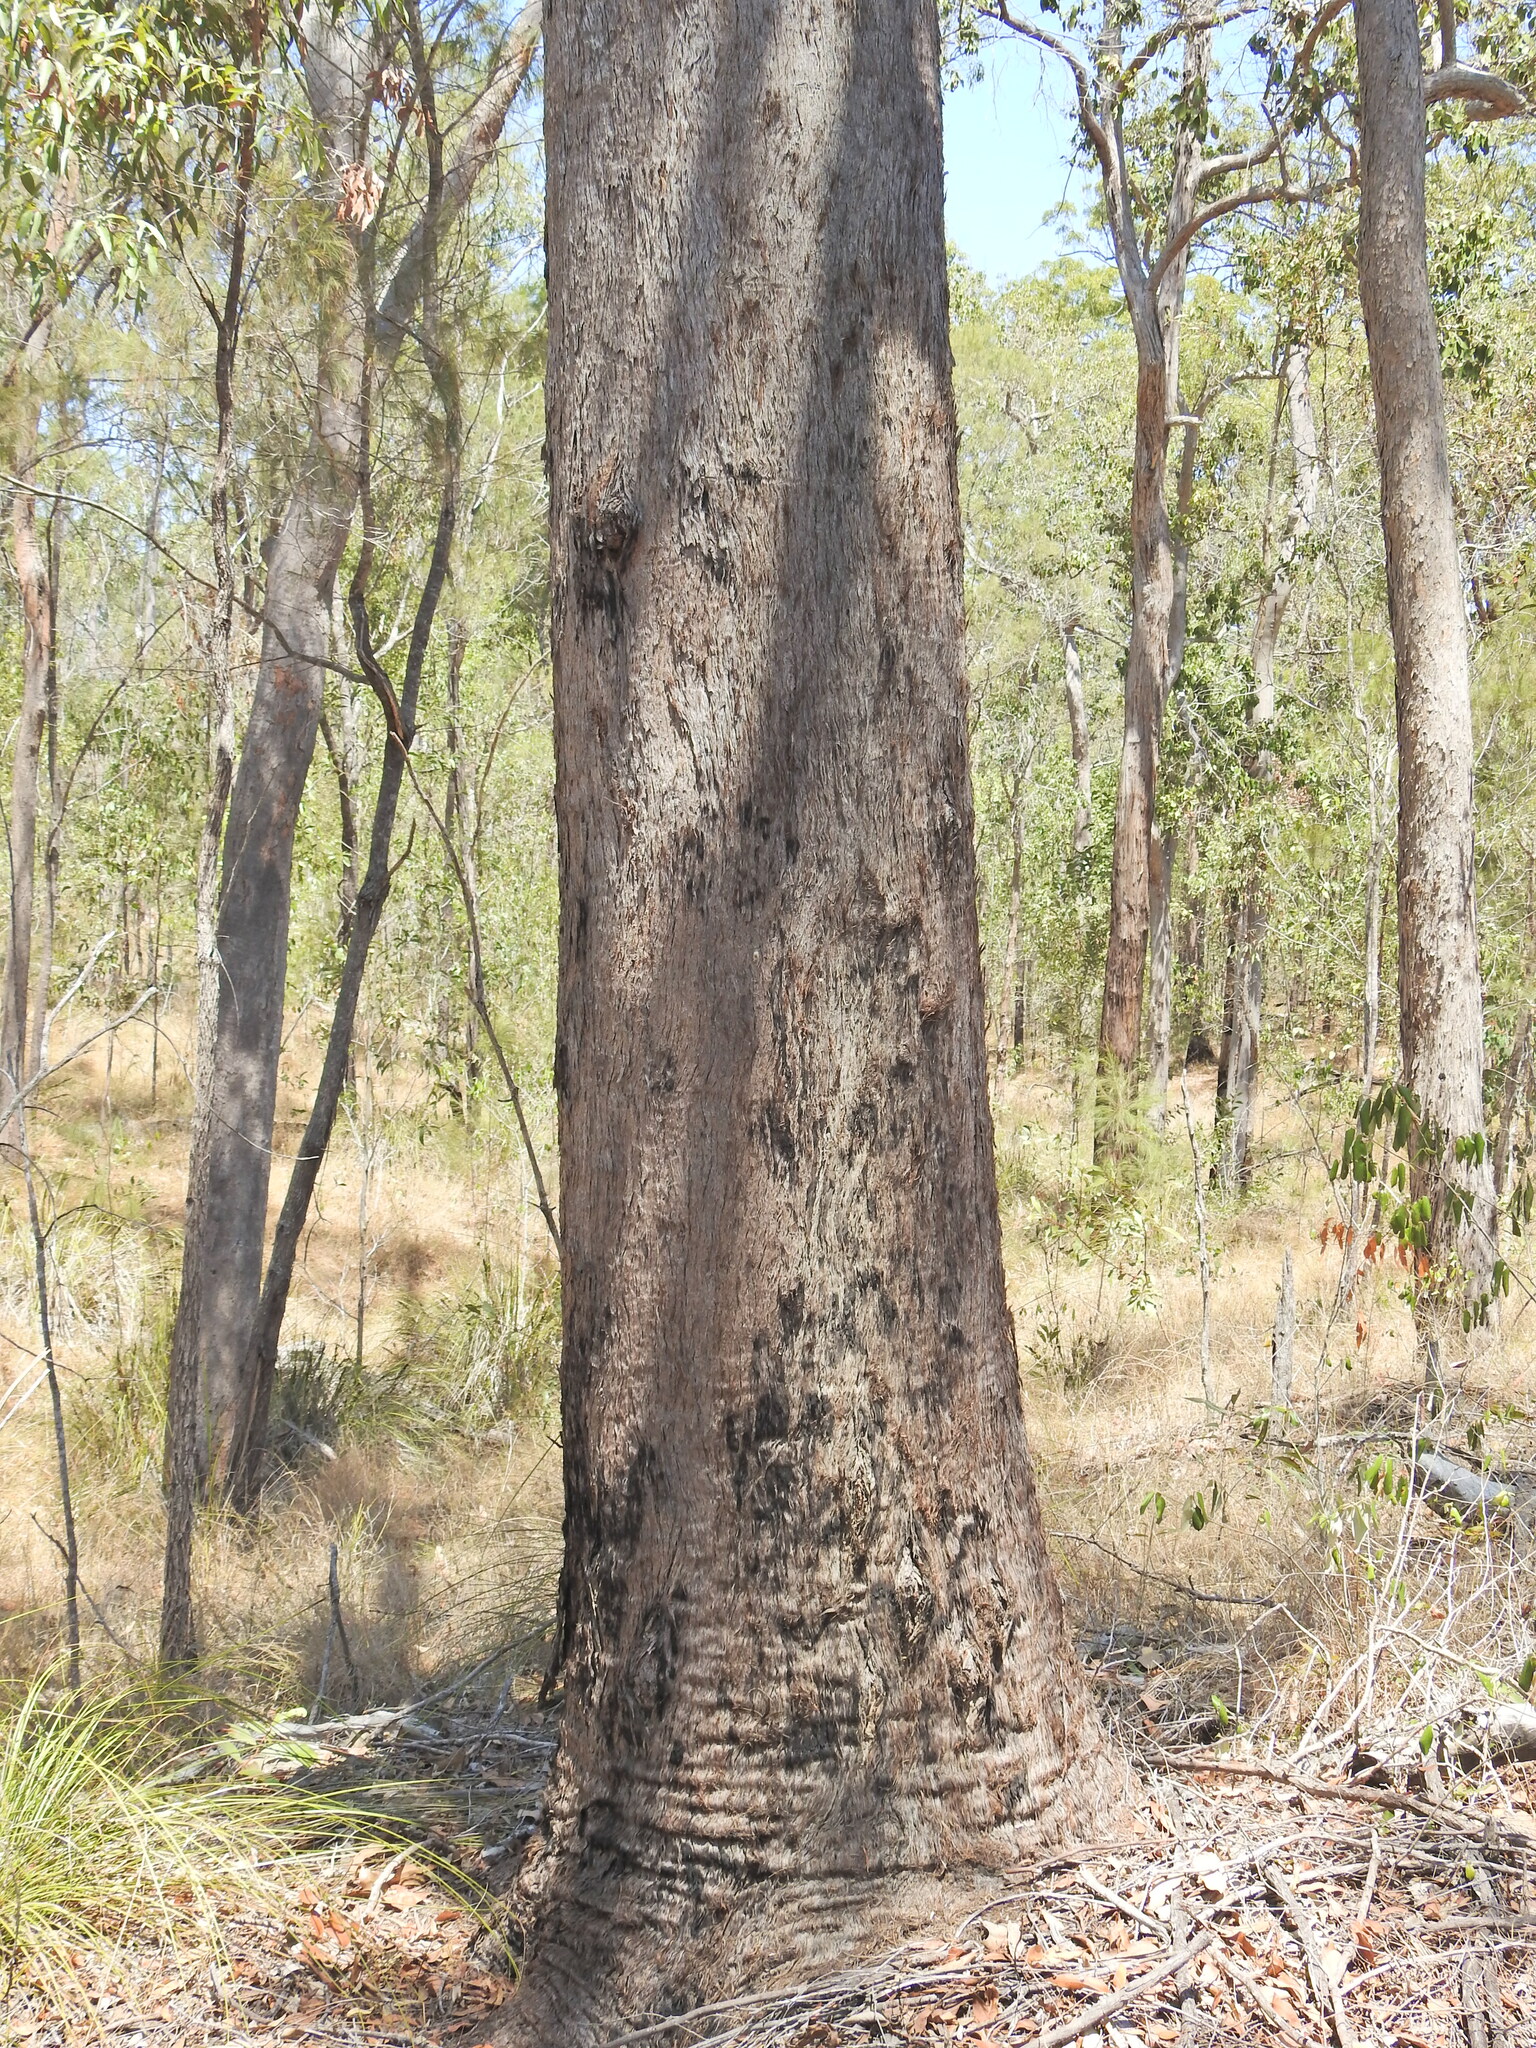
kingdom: Plantae
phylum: Tracheophyta
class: Magnoliopsida
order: Myrtales
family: Myrtaceae
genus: Eucalyptus
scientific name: Eucalyptus acmenoides
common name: White-mahogany
